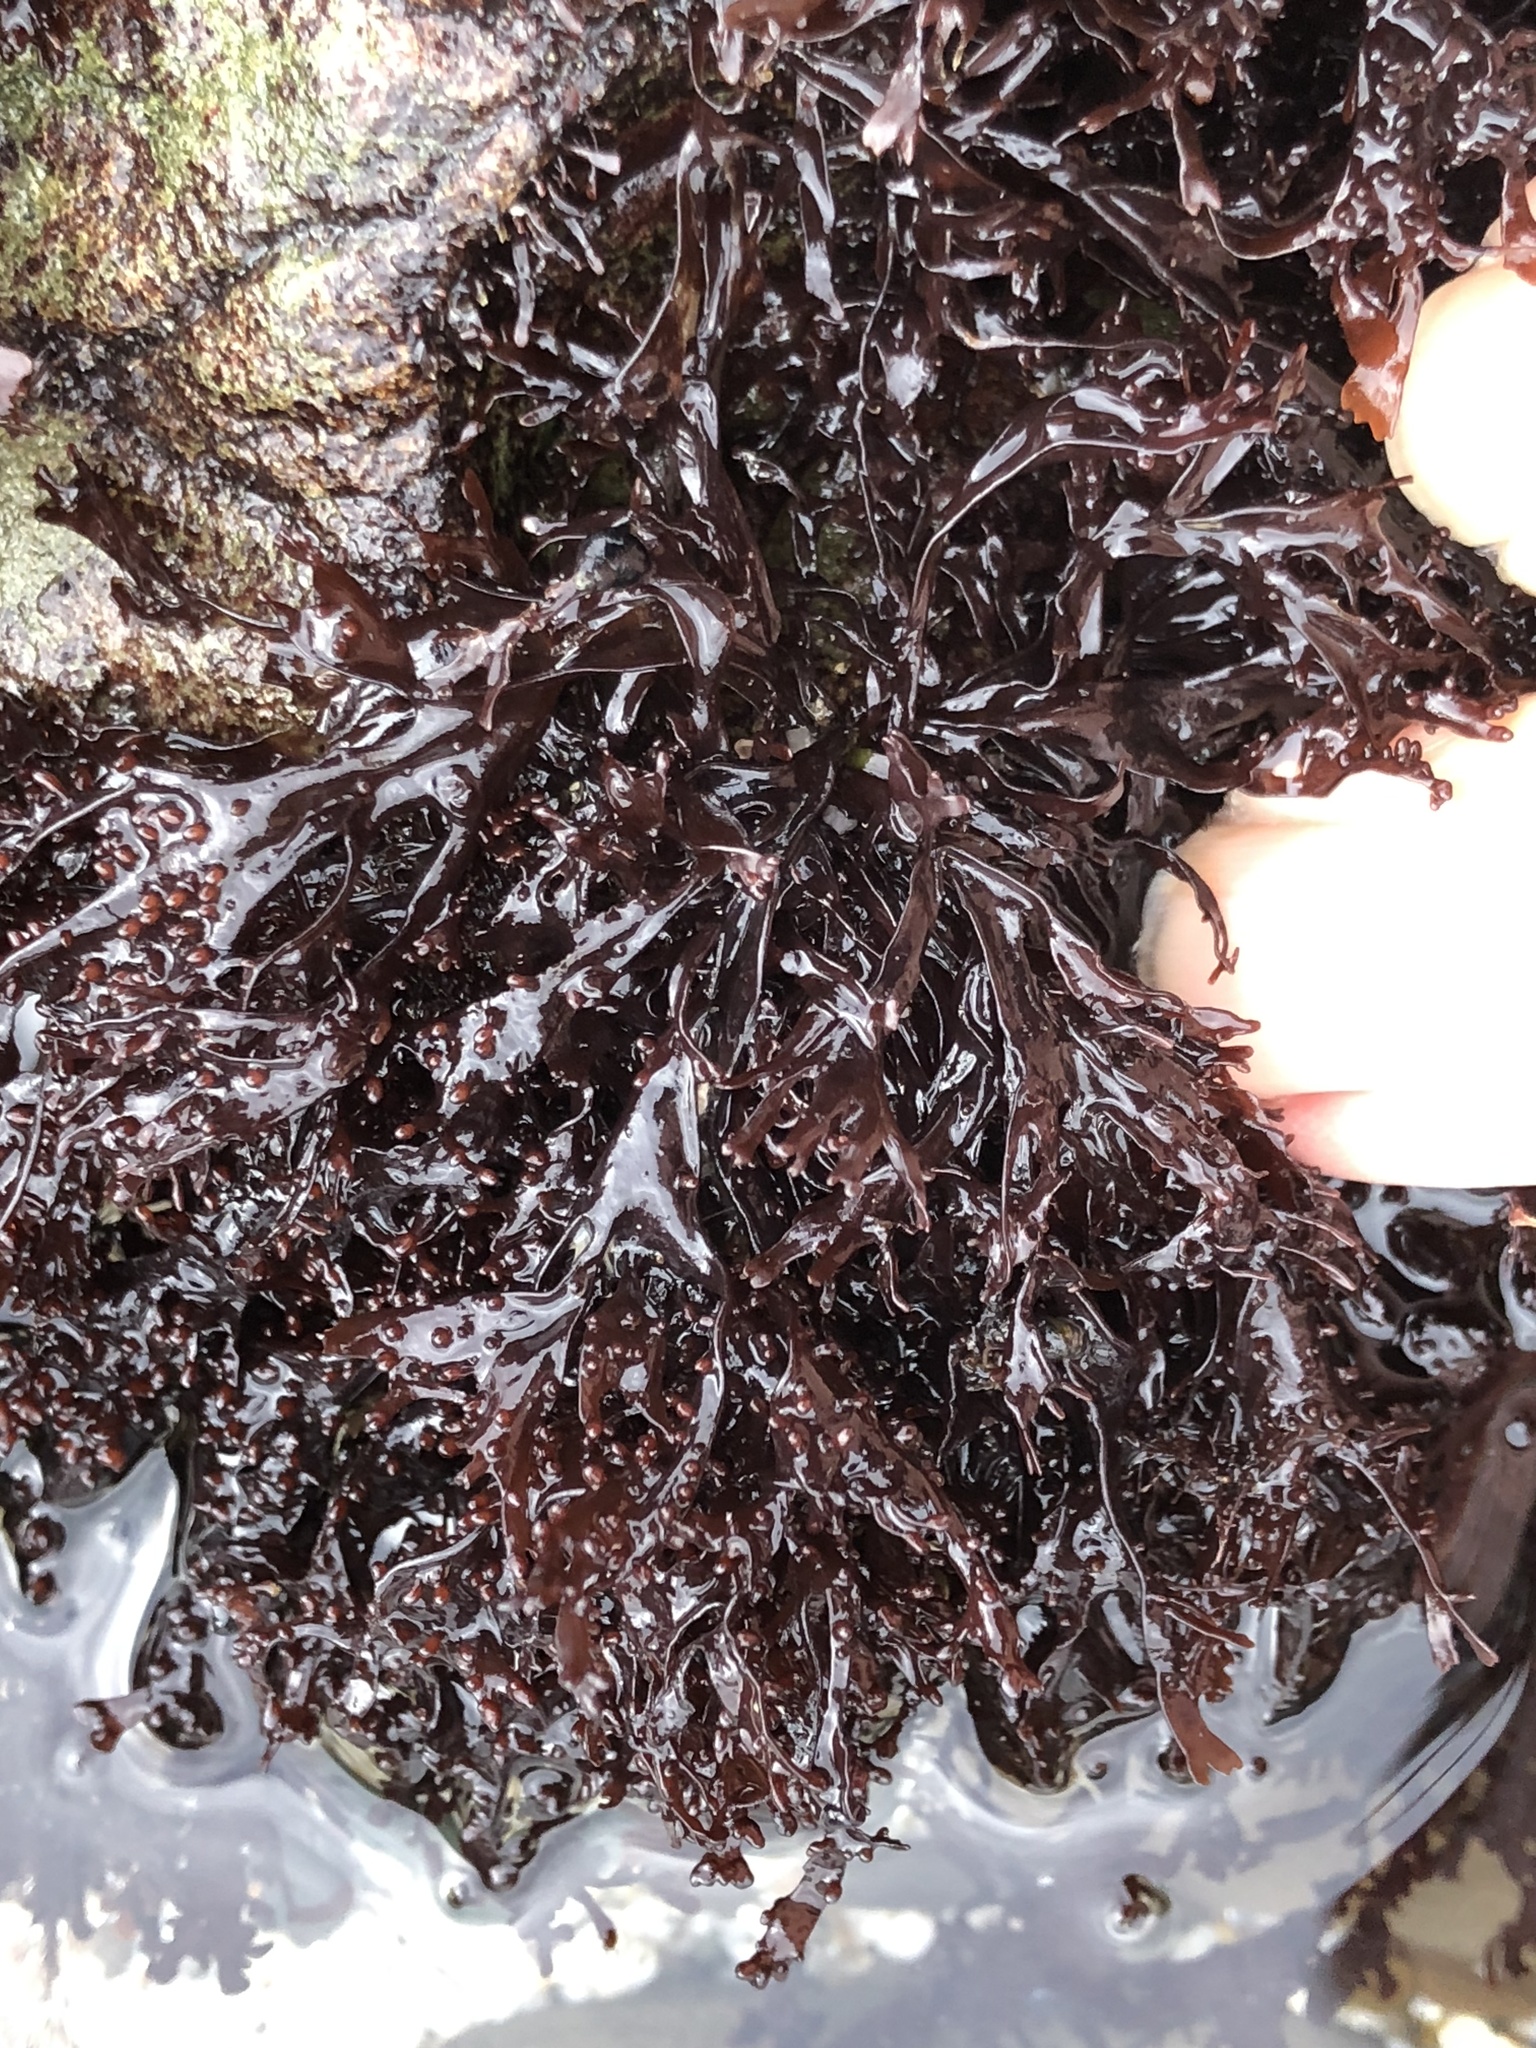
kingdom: Plantae
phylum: Rhodophyta
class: Florideophyceae
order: Gigartinales
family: Phyllophoraceae
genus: Mastocarpus
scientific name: Mastocarpus jardinii
